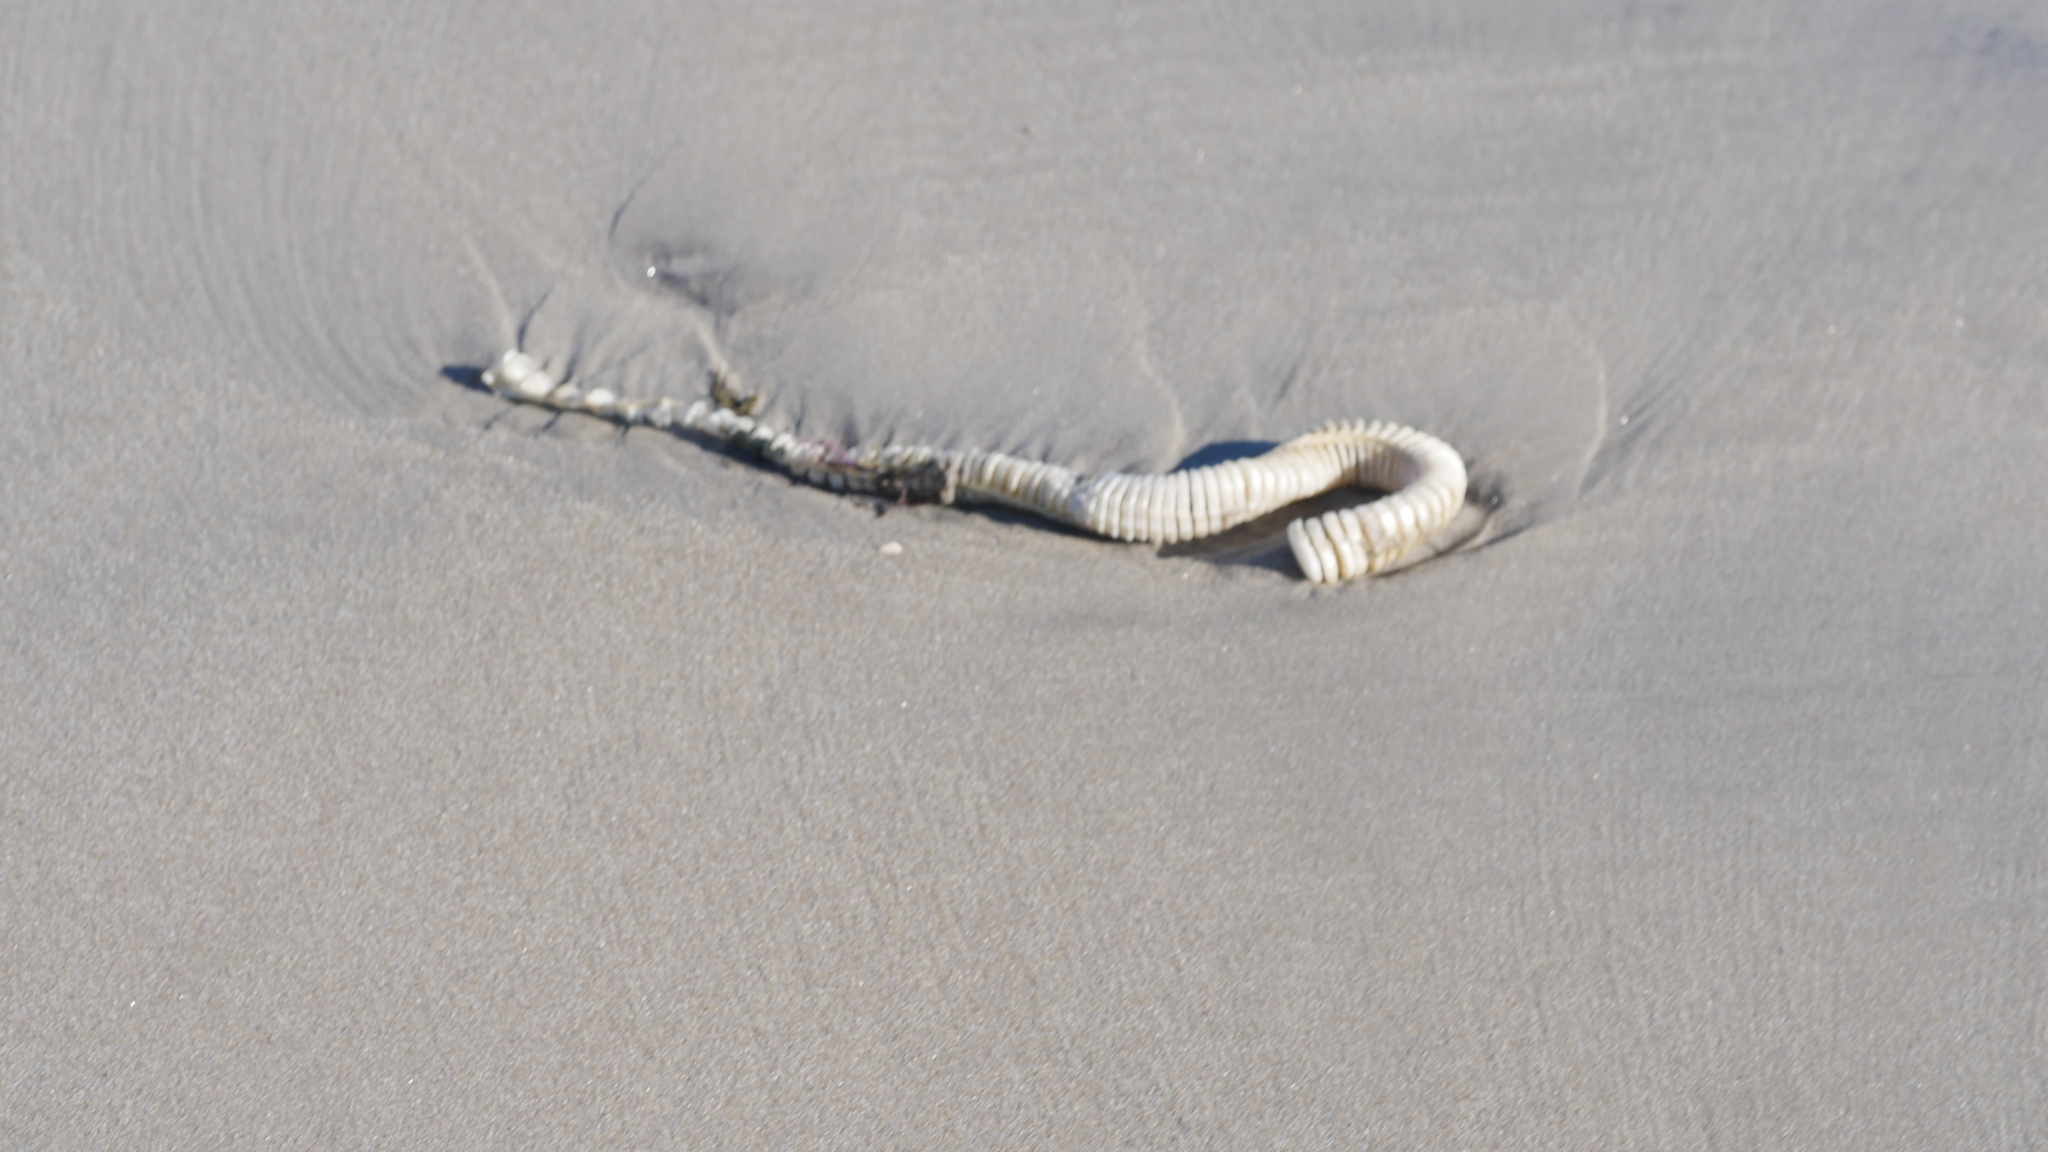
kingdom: Animalia
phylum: Mollusca
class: Gastropoda
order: Neogastropoda
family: Busyconidae
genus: Busycon
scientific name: Busycon carica
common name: Knobbed whelk
